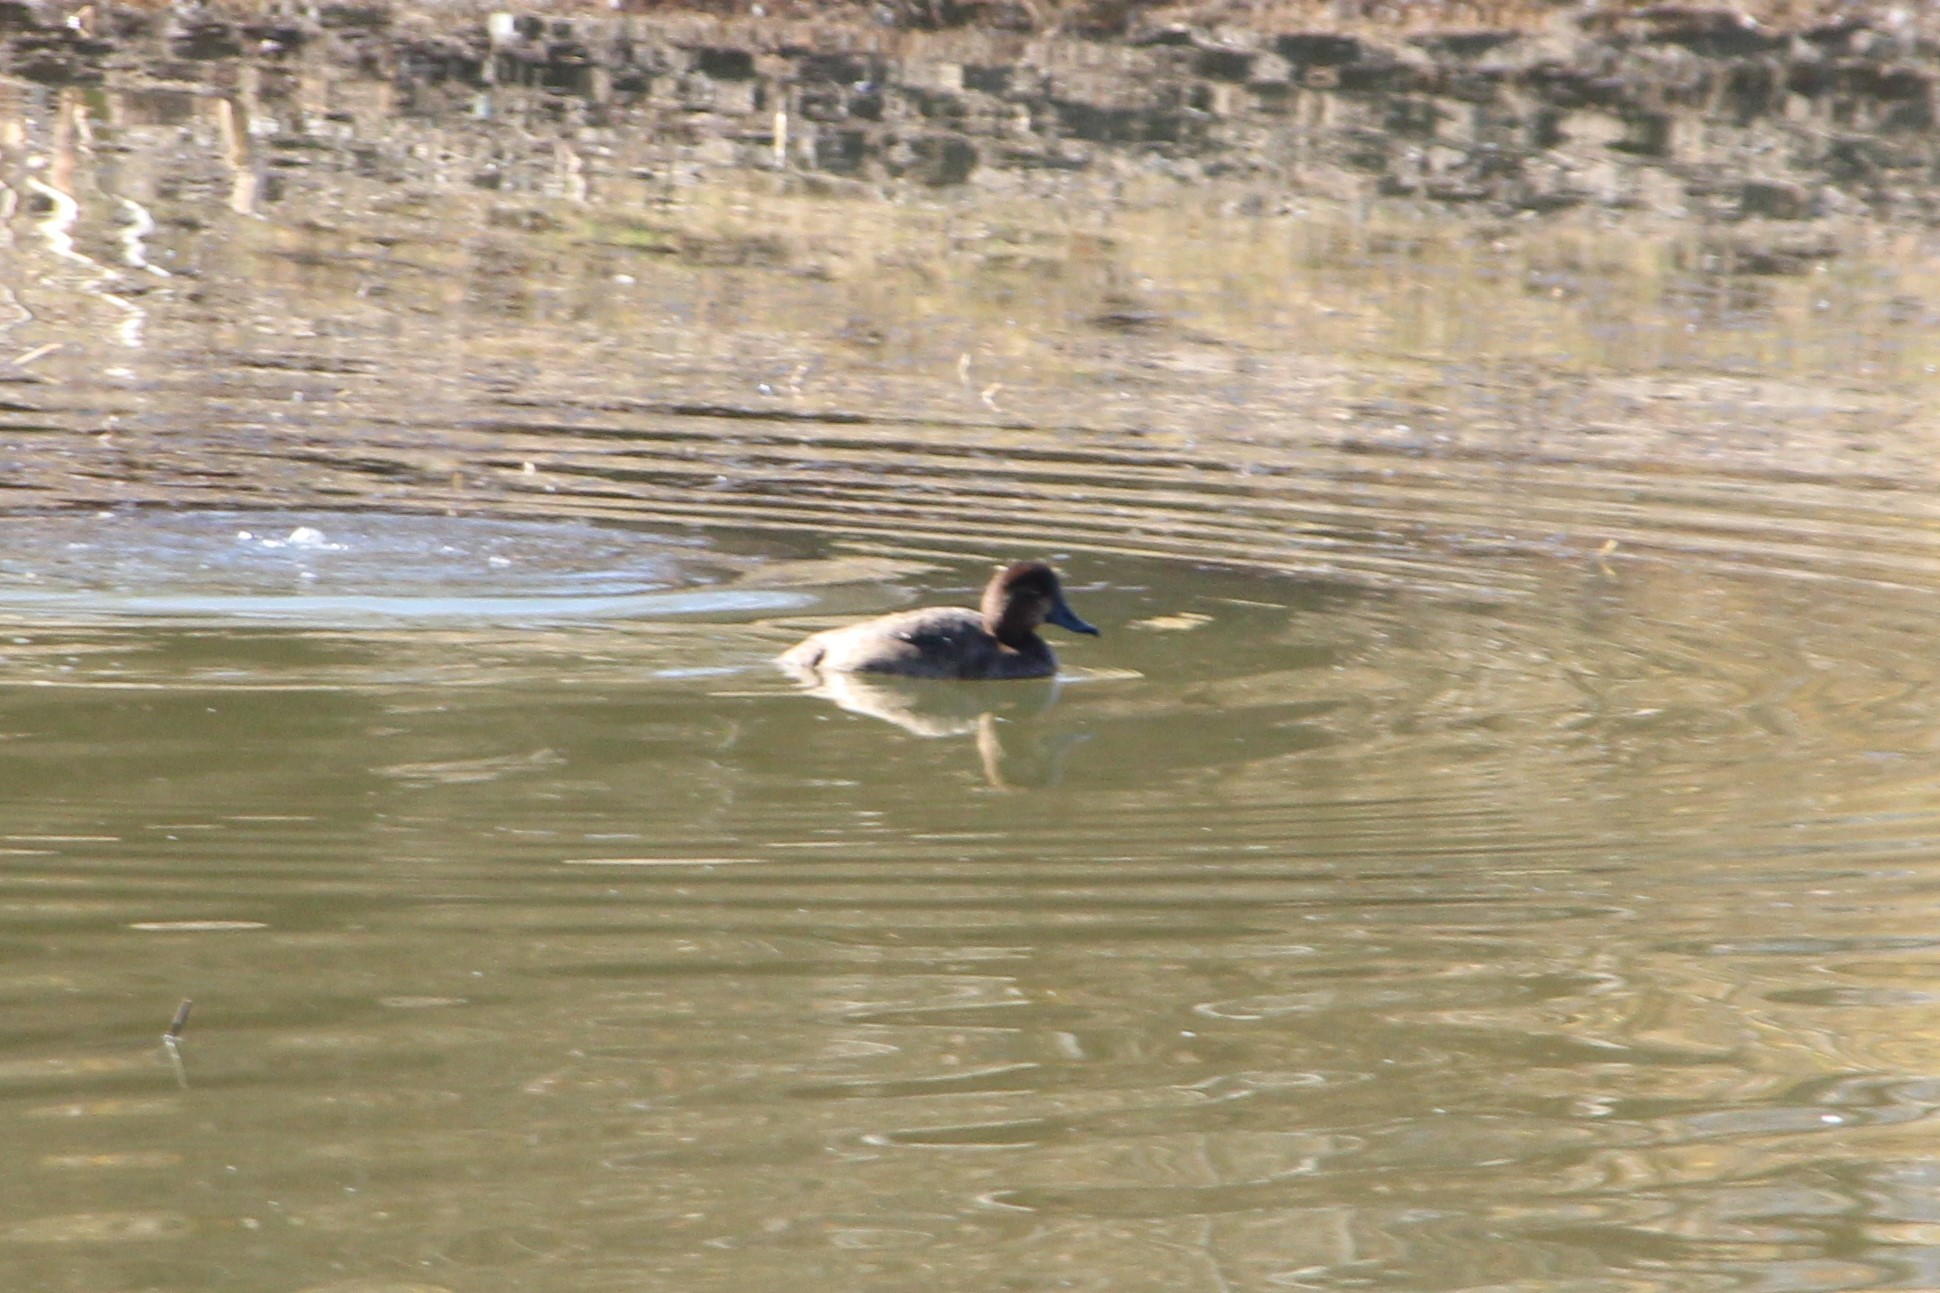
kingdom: Animalia
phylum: Chordata
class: Aves
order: Anseriformes
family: Anatidae
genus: Aythya
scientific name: Aythya americana
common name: Redhead
